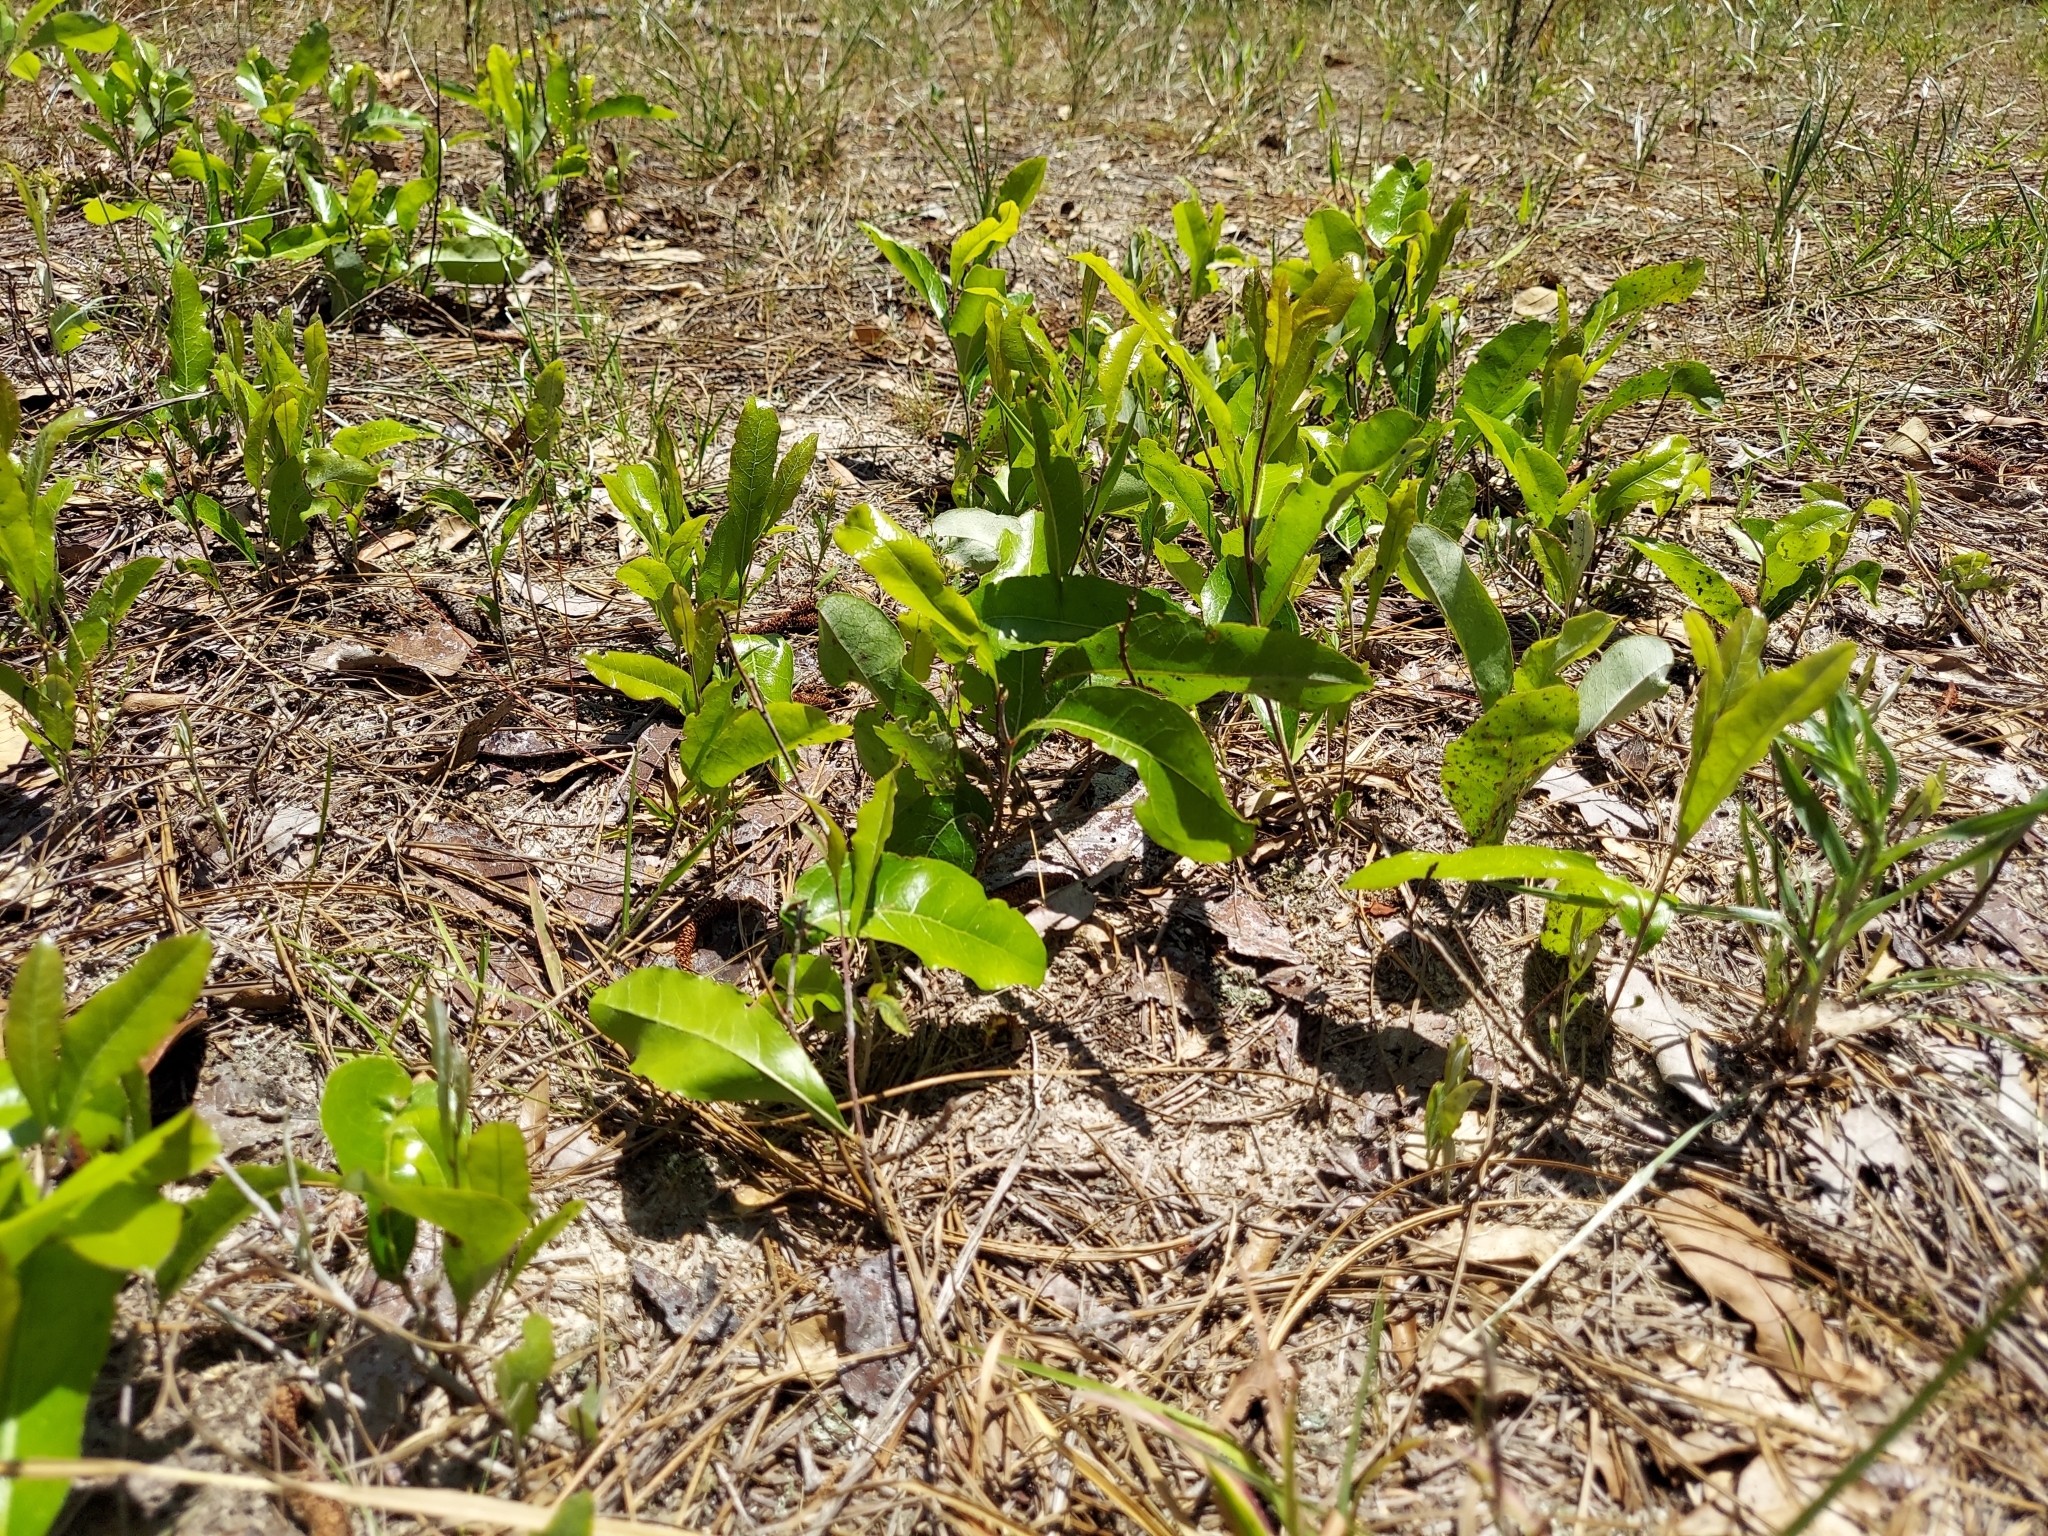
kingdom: Plantae
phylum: Tracheophyta
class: Magnoliopsida
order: Malpighiales
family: Chrysobalanaceae
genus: Geobalanus
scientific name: Geobalanus oblongifolius
